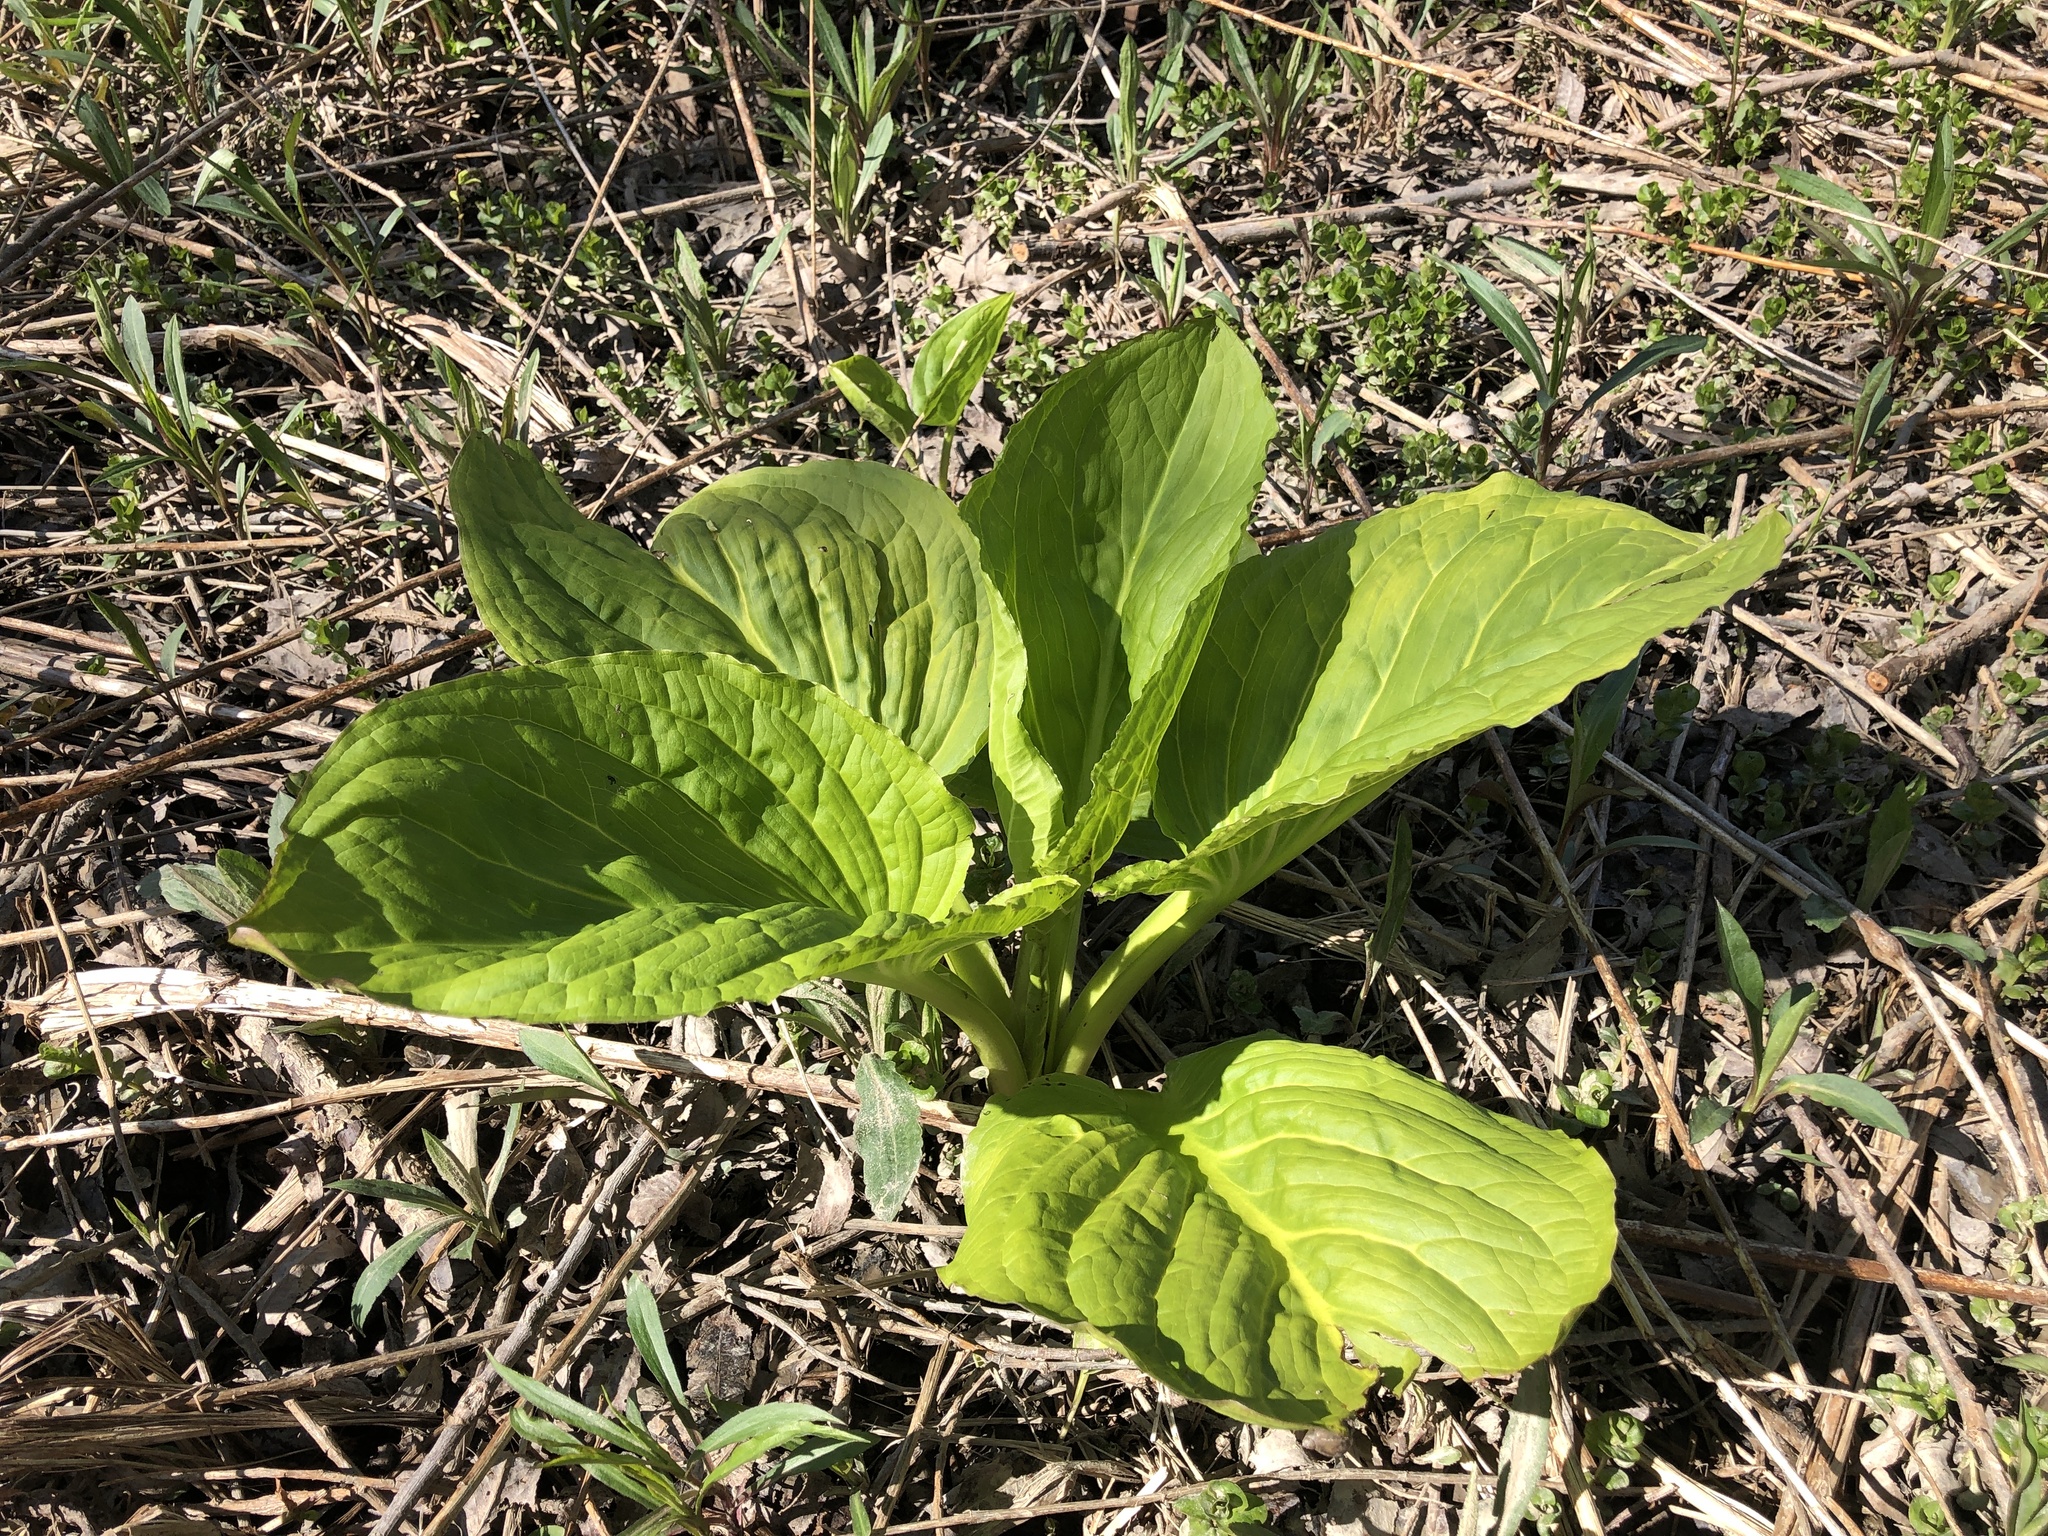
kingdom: Plantae
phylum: Tracheophyta
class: Liliopsida
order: Alismatales
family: Araceae
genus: Symplocarpus
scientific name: Symplocarpus foetidus
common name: Eastern skunk cabbage
